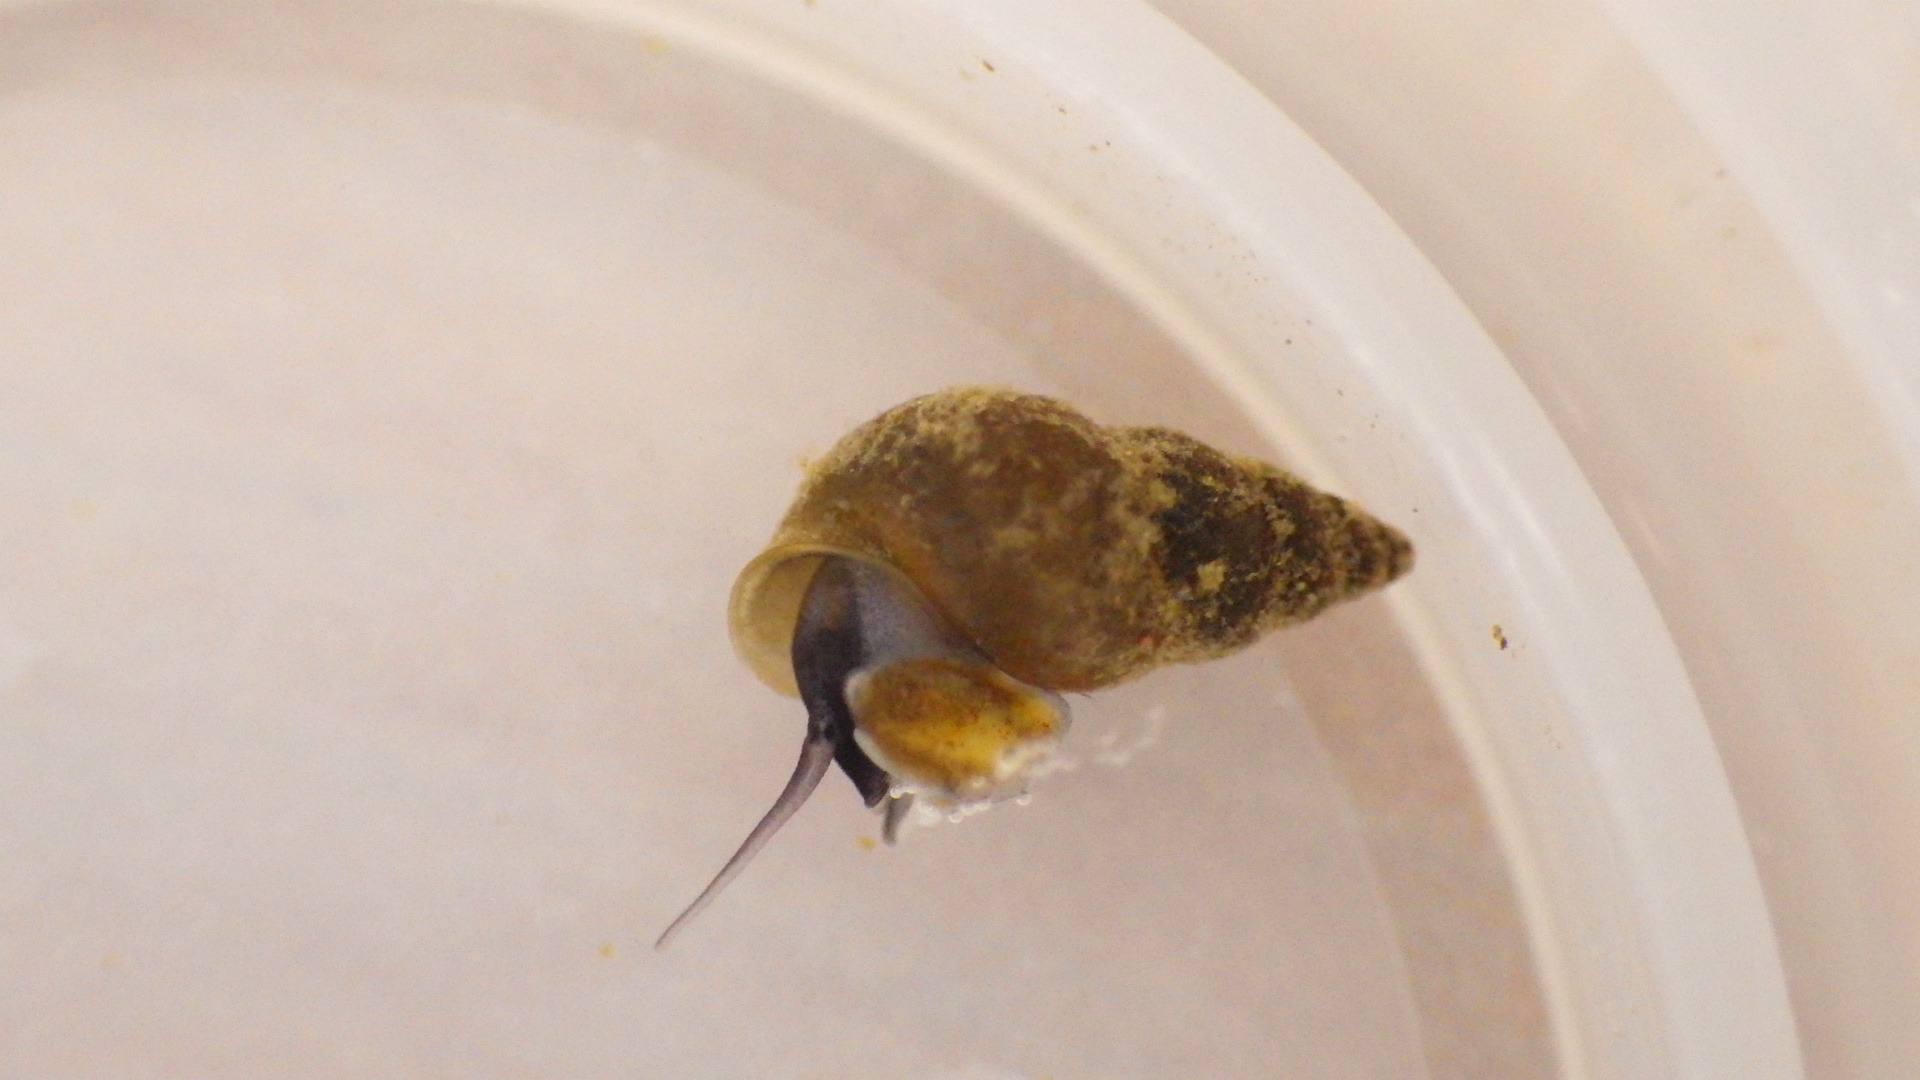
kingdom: Animalia
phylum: Mollusca
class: Gastropoda
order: Littorinimorpha
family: Tateidae
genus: Potamopyrgus
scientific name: Potamopyrgus antipodarum
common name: Jenkins' spire snail
